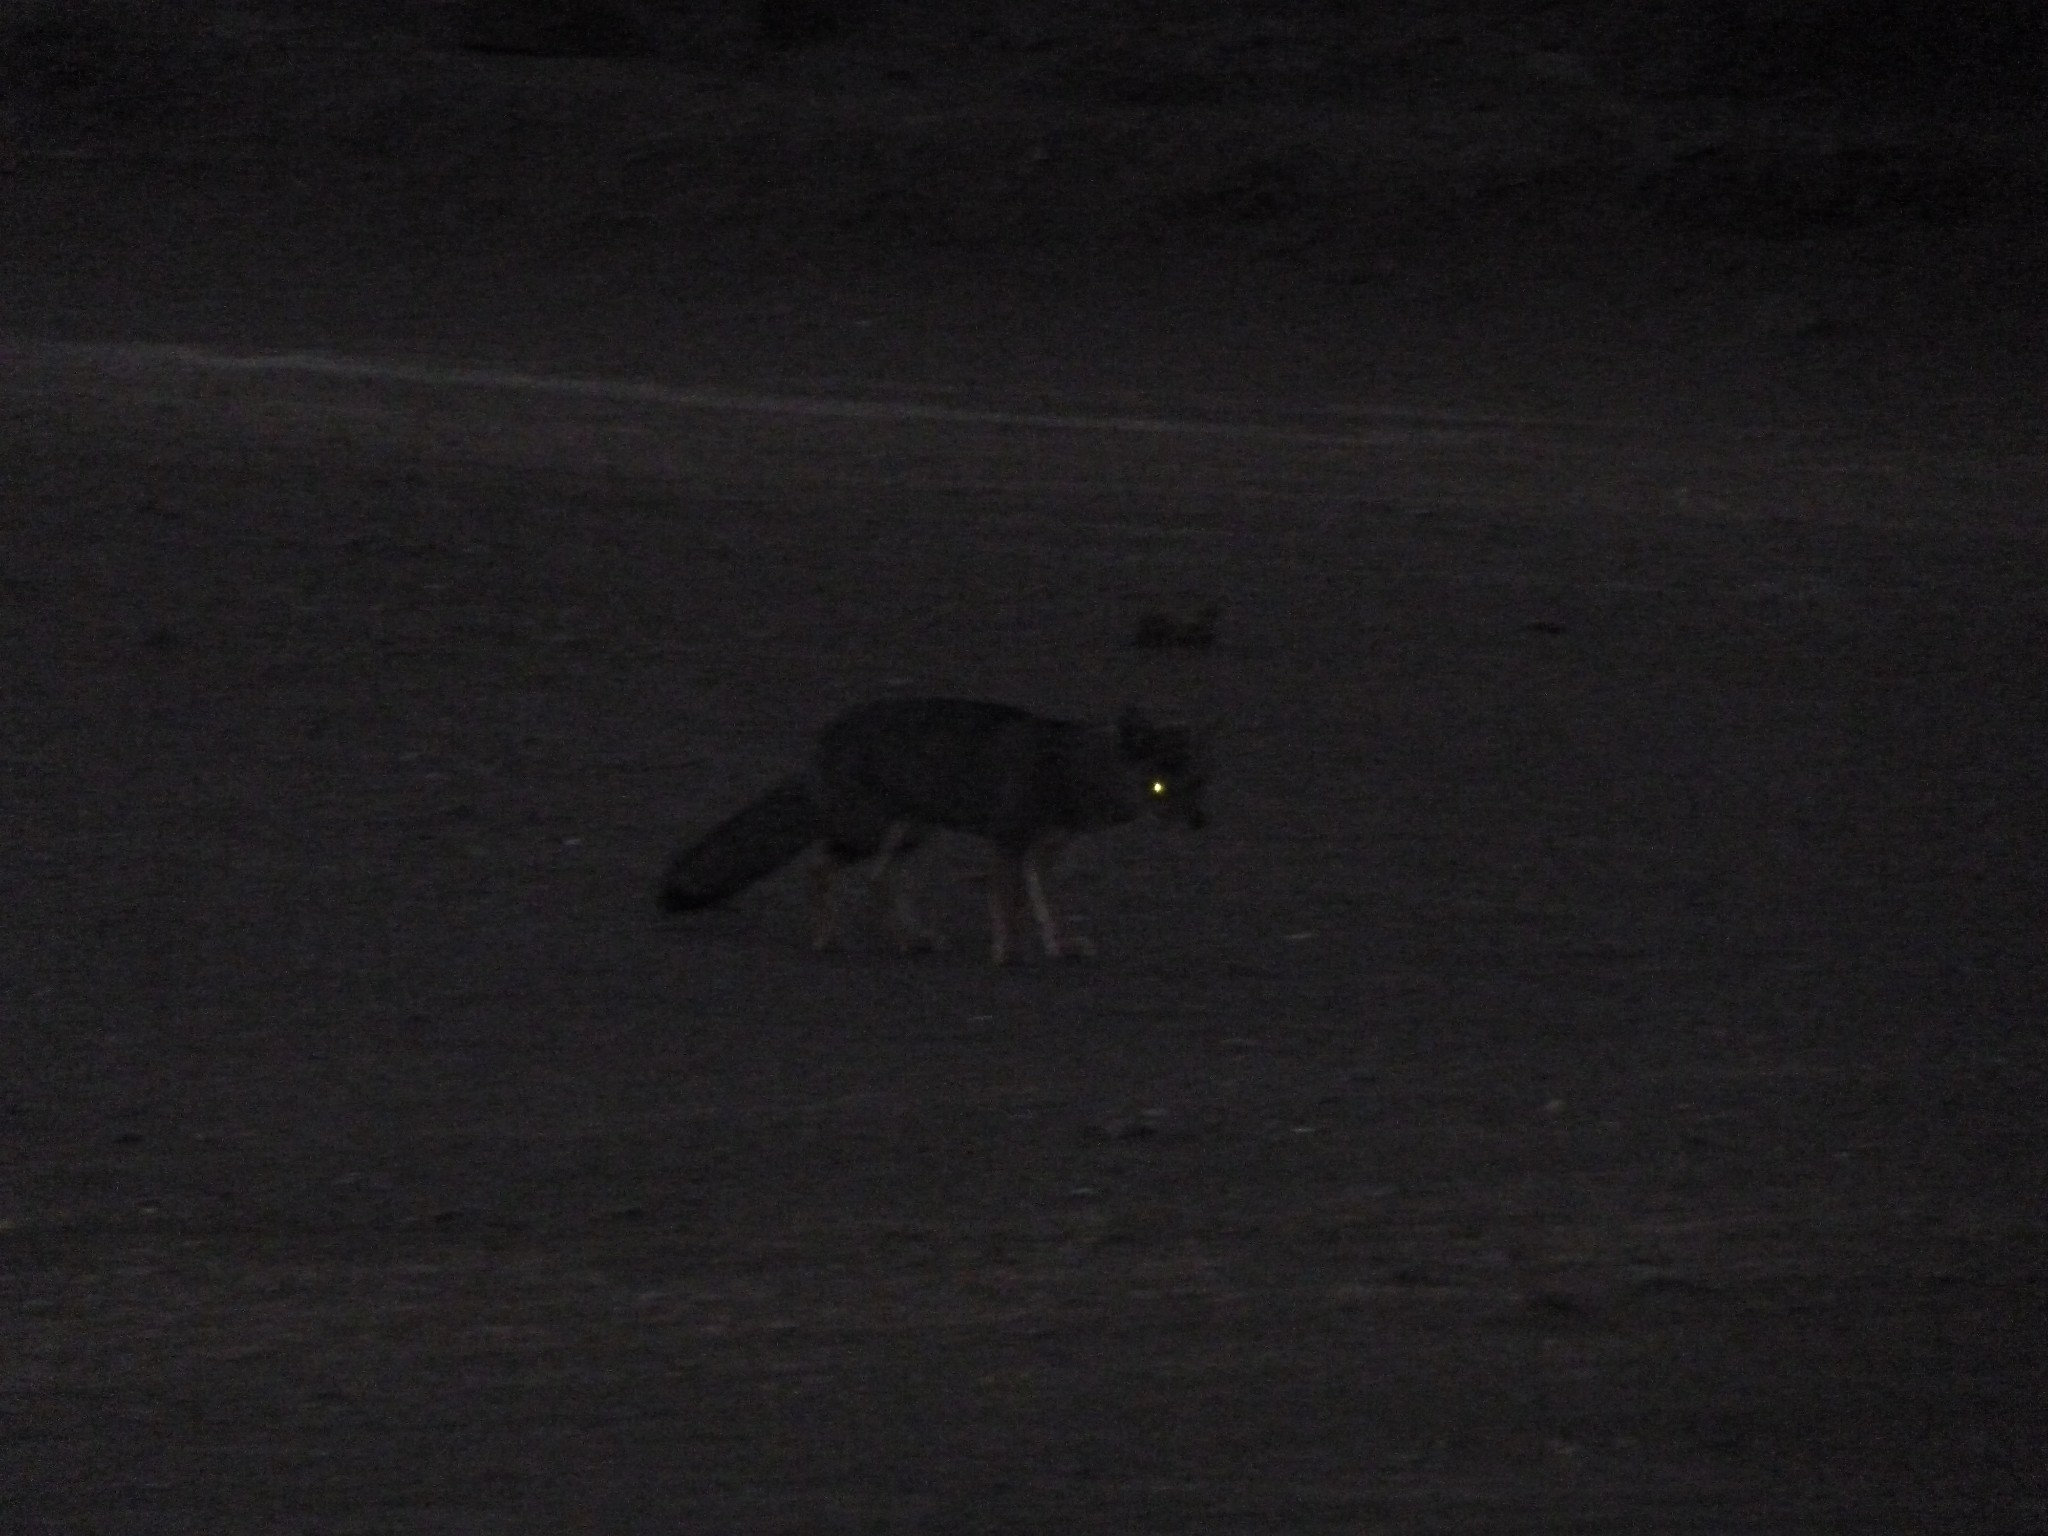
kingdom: Animalia
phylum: Chordata
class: Mammalia
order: Carnivora
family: Canidae
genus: Lycalopex
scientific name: Lycalopex gymnocercus
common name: Pampas fox
